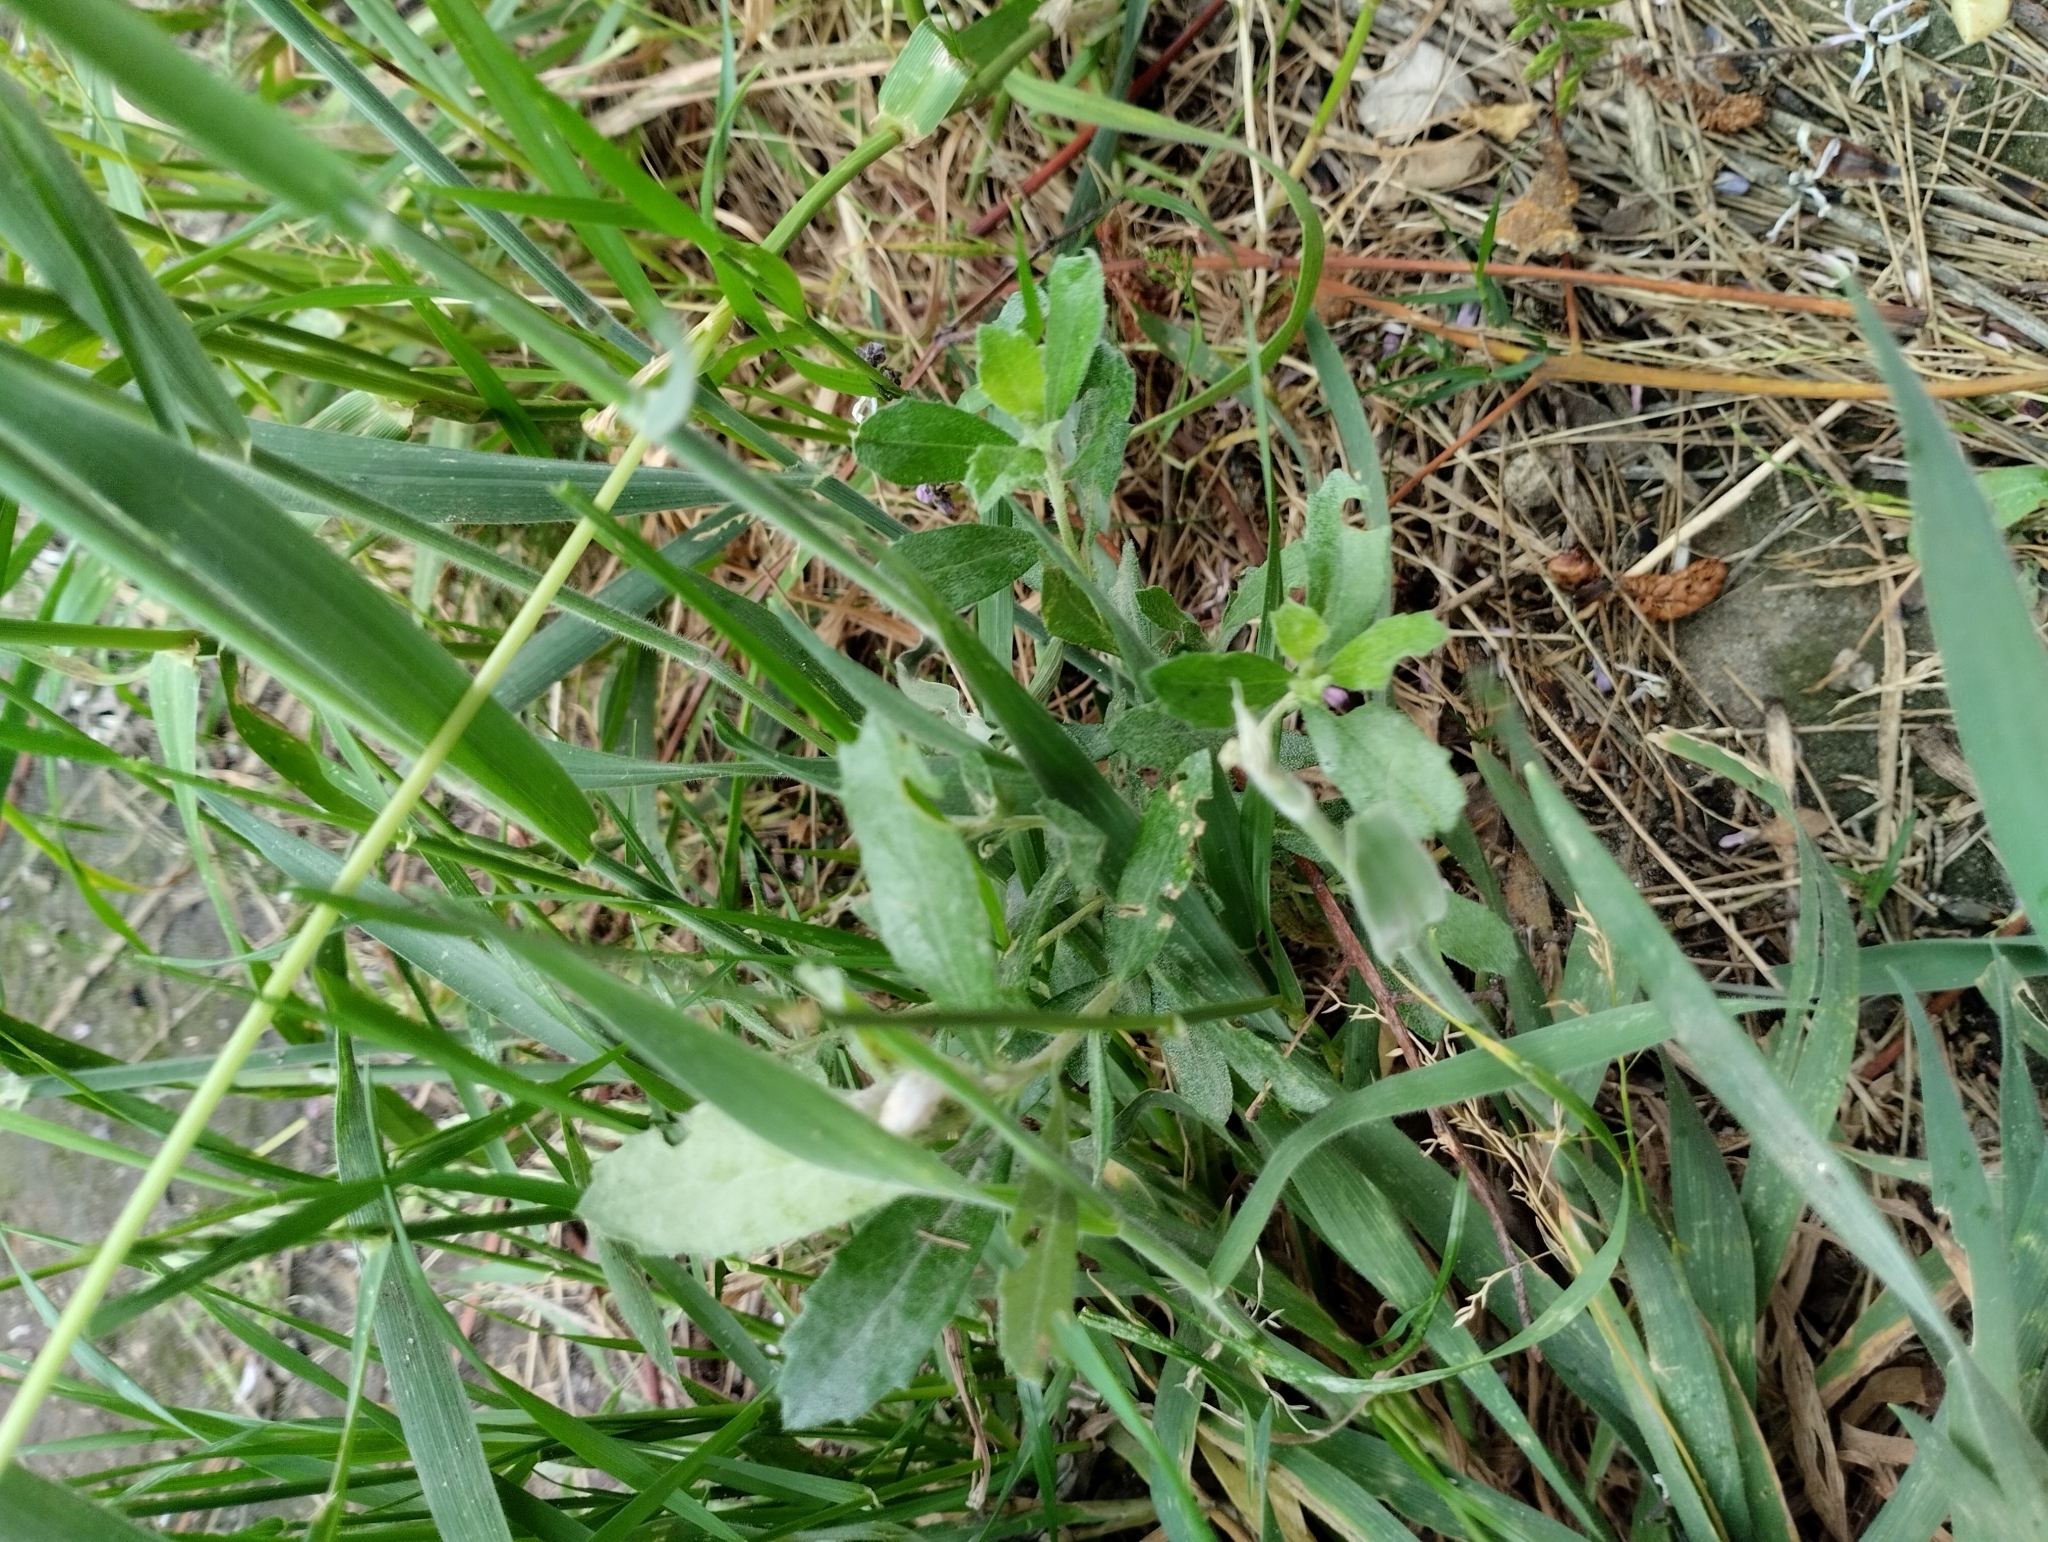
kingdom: Plantae
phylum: Tracheophyta
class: Magnoliopsida
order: Asterales
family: Asteraceae
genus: Baccharis
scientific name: Baccharis dracunculifolia
